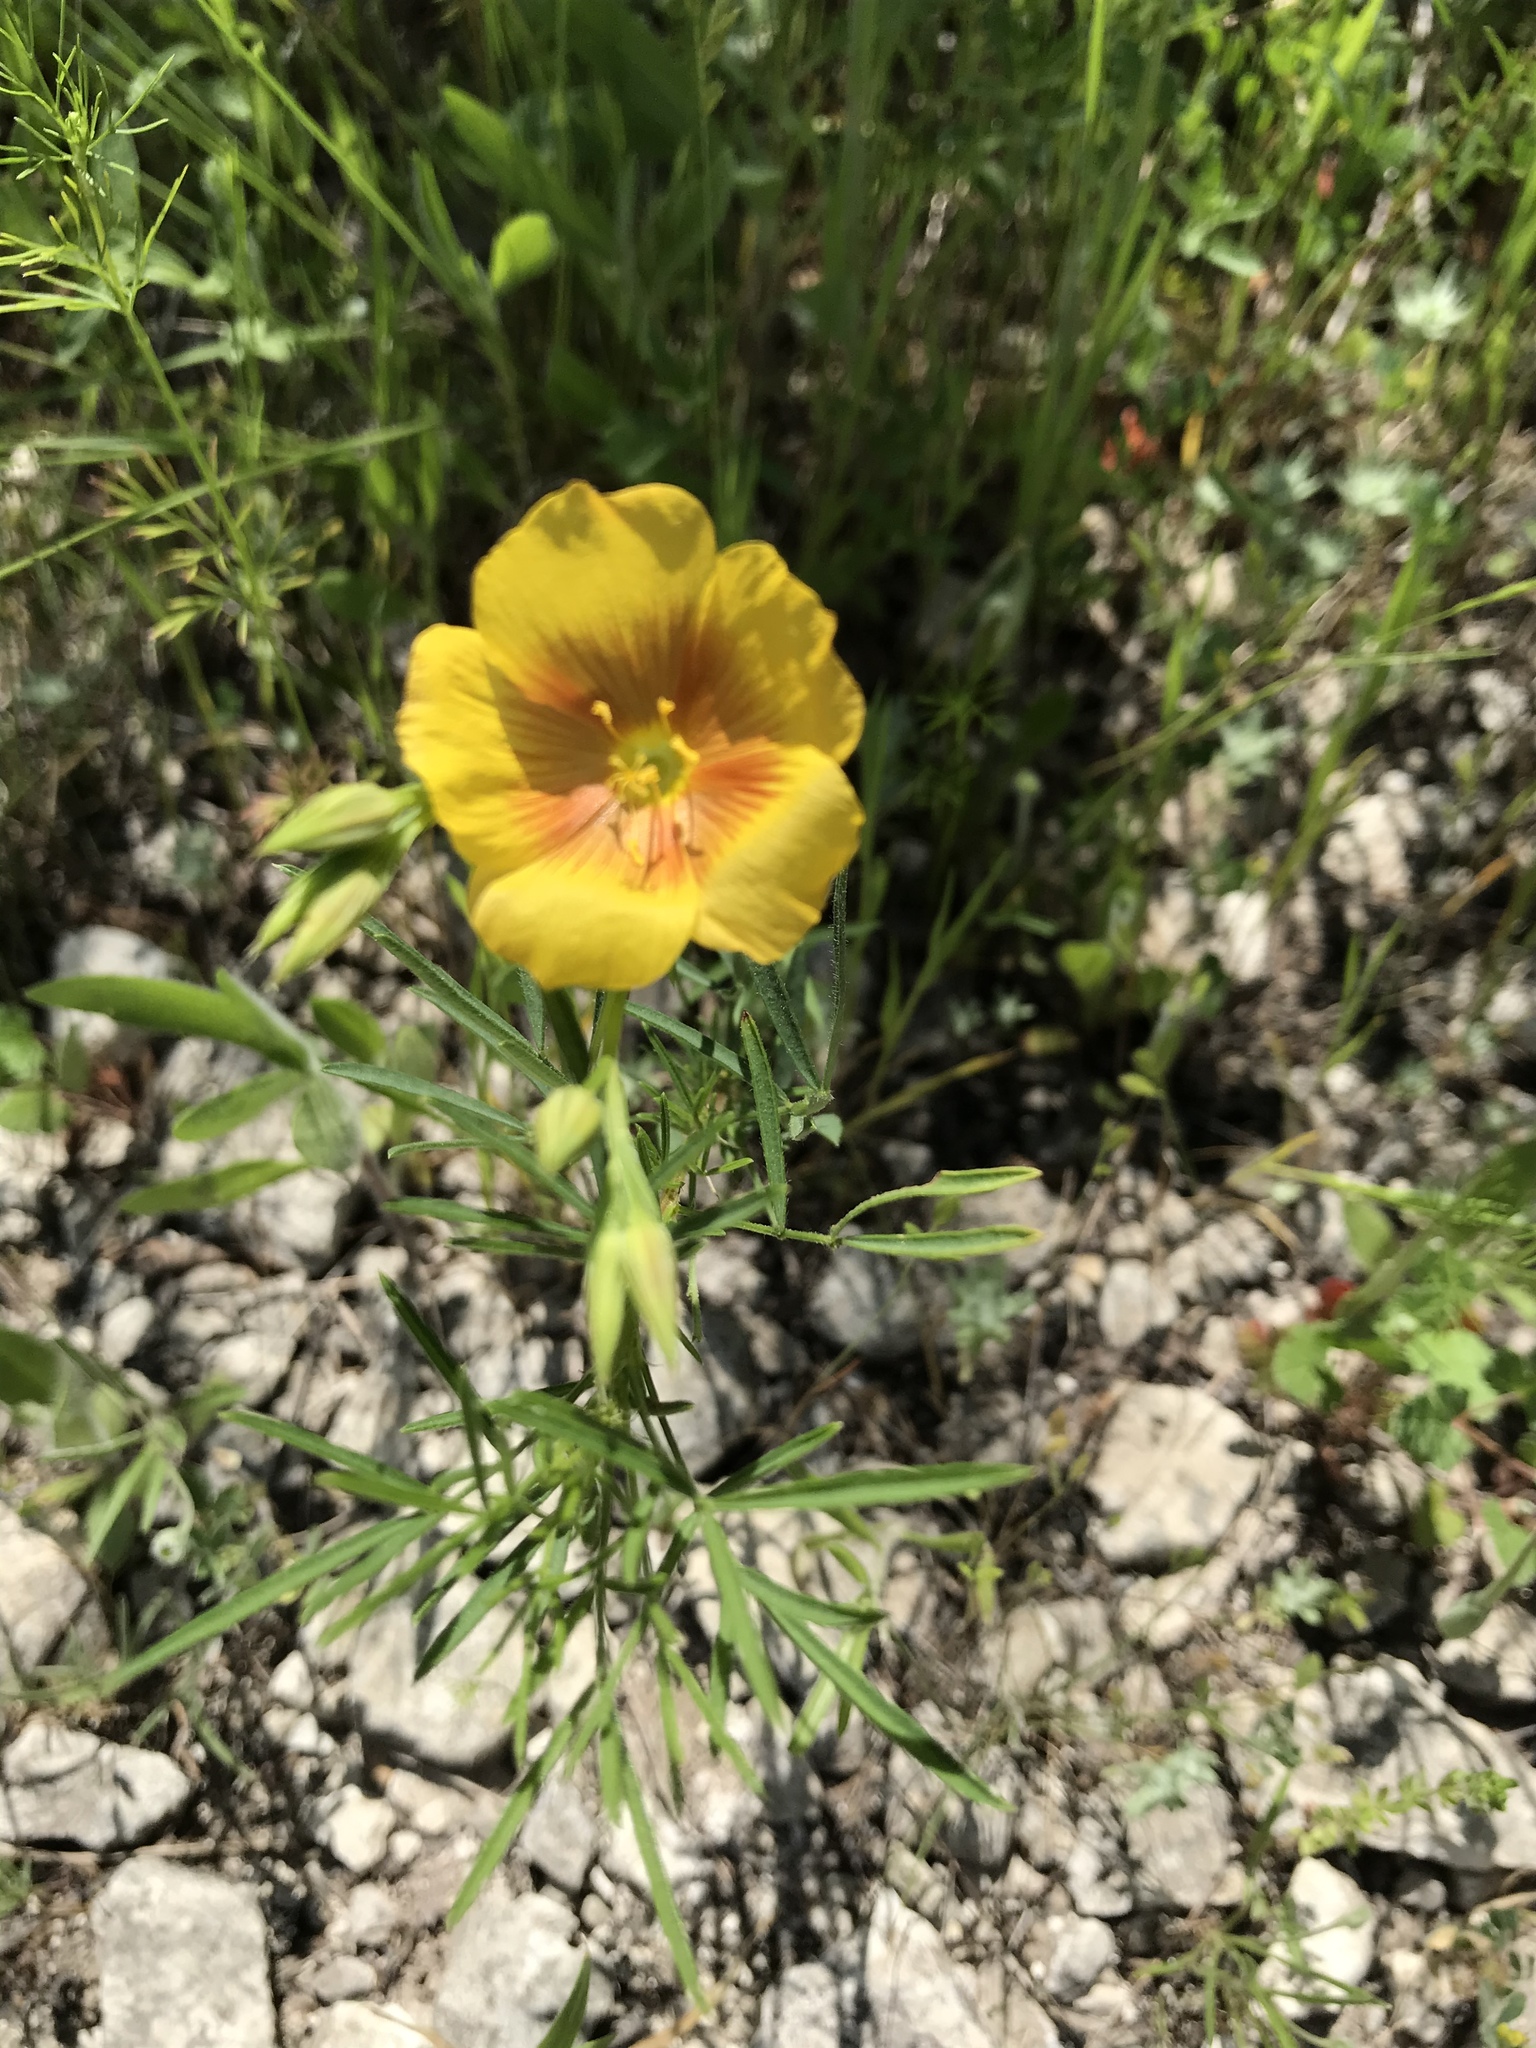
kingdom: Plantae
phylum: Tracheophyta
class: Magnoliopsida
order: Malpighiales
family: Linaceae
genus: Linum
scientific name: Linum rigidum
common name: Stiff-stem flax
